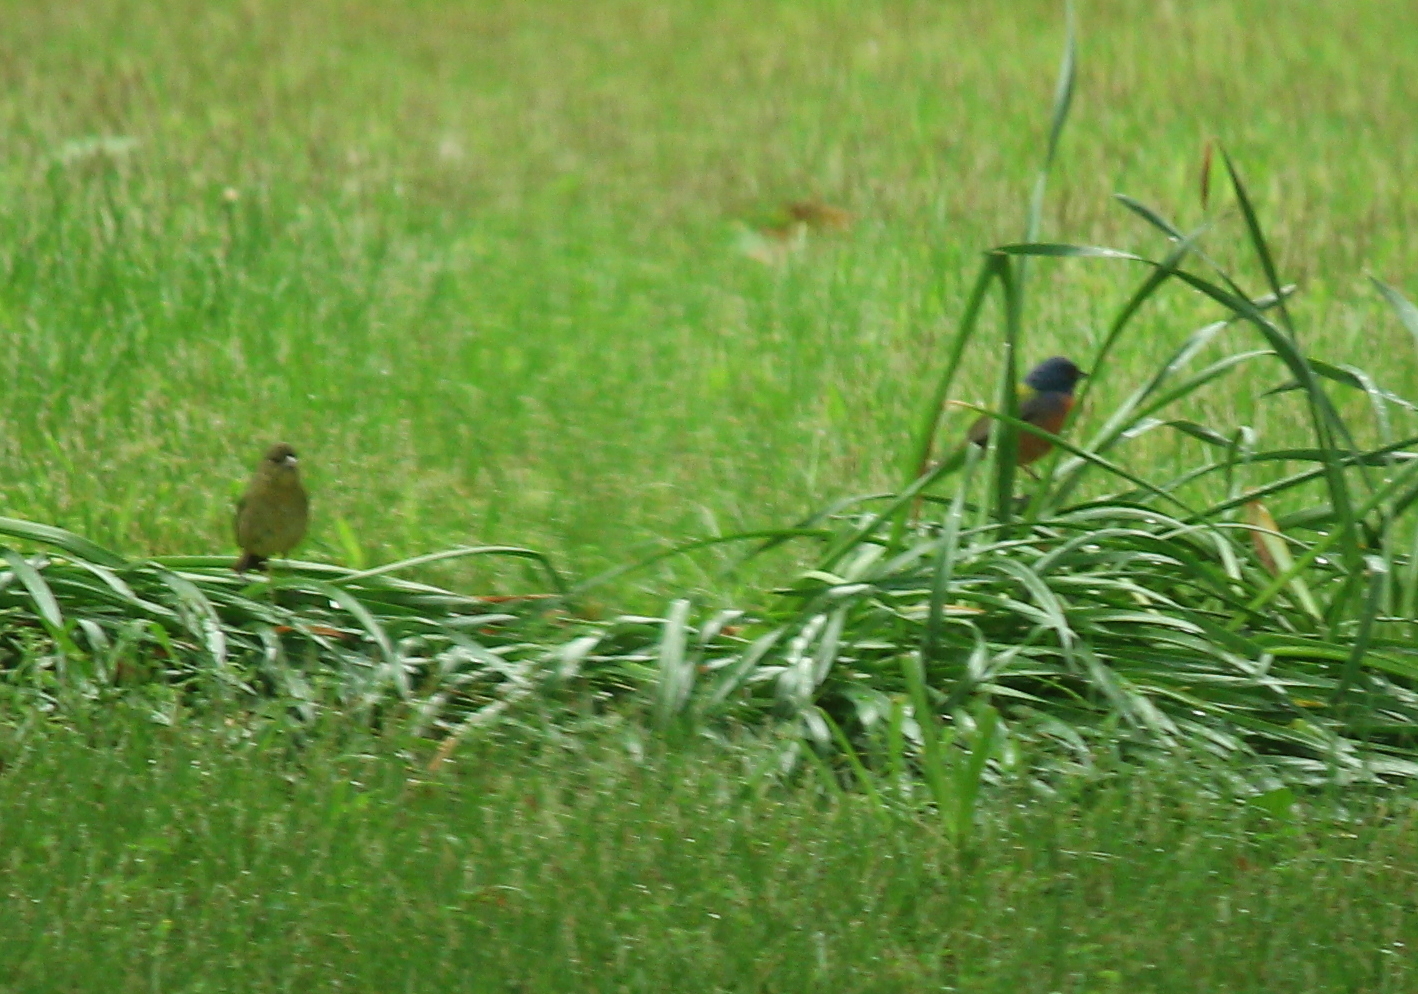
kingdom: Animalia
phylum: Chordata
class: Aves
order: Passeriformes
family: Cardinalidae
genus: Passerina
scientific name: Passerina ciris
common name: Painted bunting
